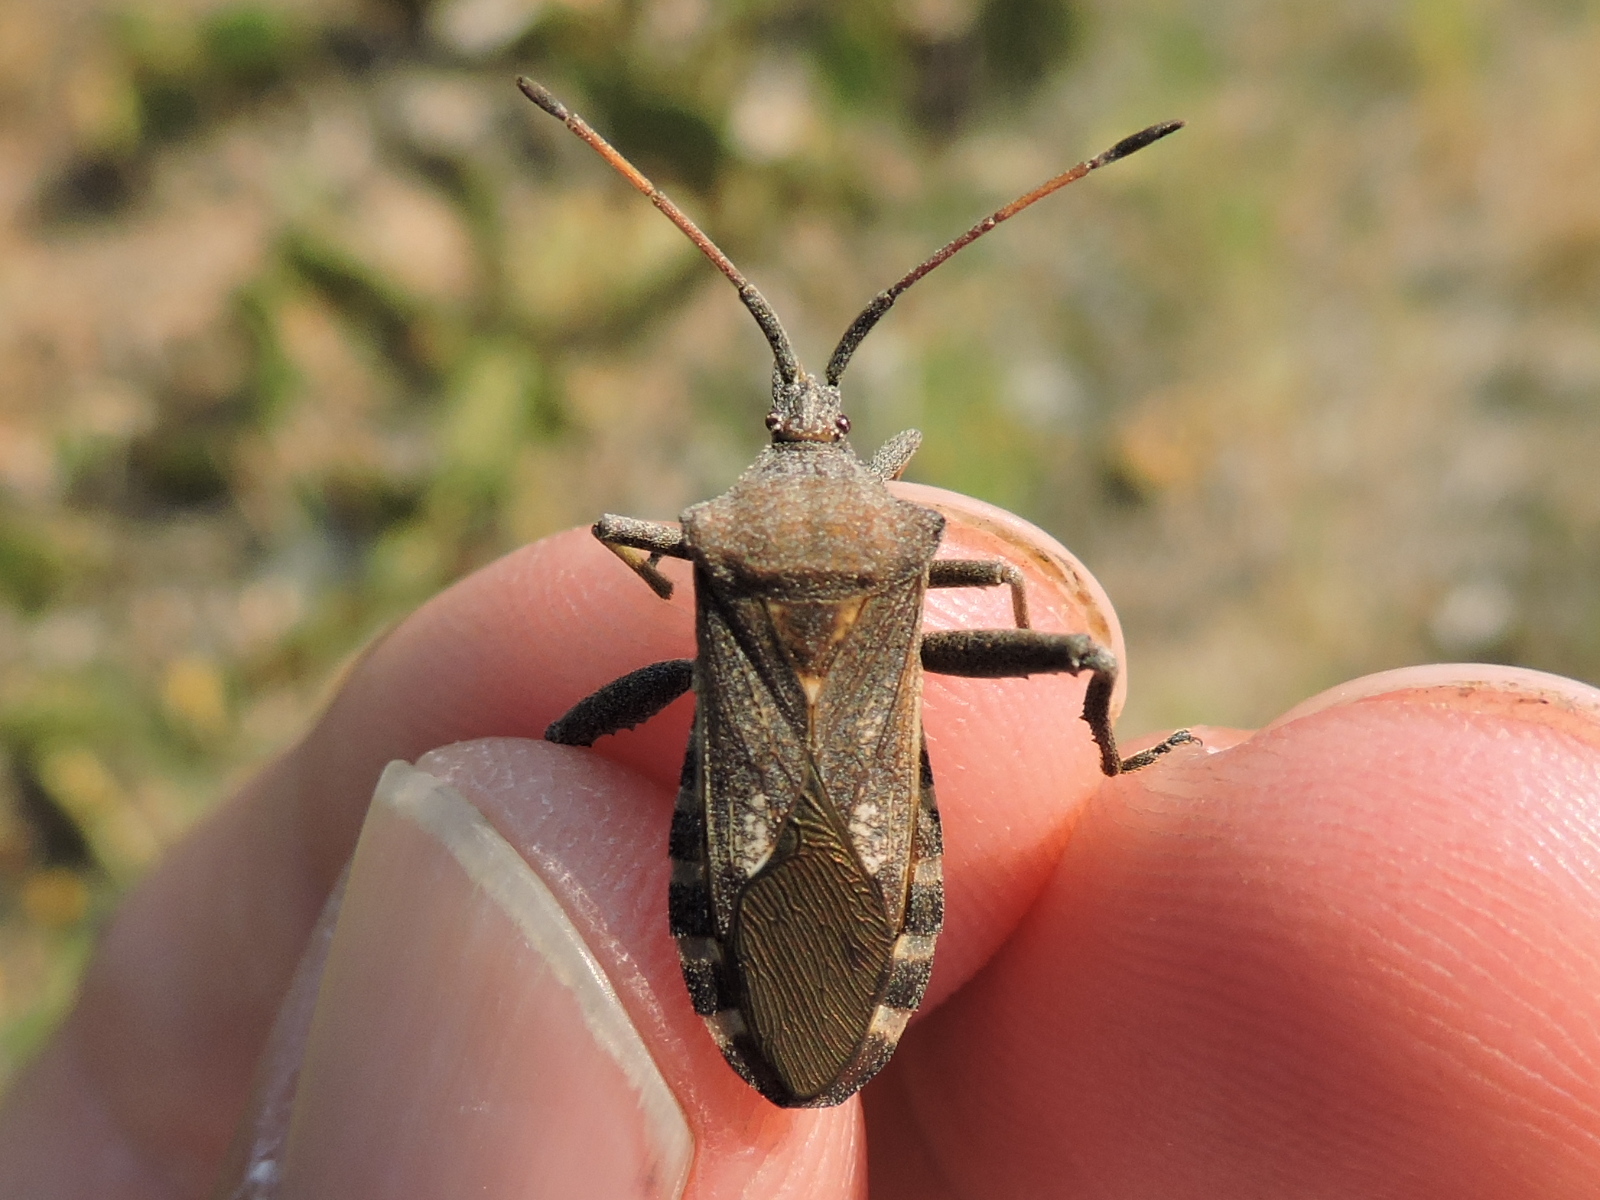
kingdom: Animalia
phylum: Arthropoda
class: Insecta
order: Hemiptera
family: Coreidae
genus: Mozena
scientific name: Mozena obtusa
